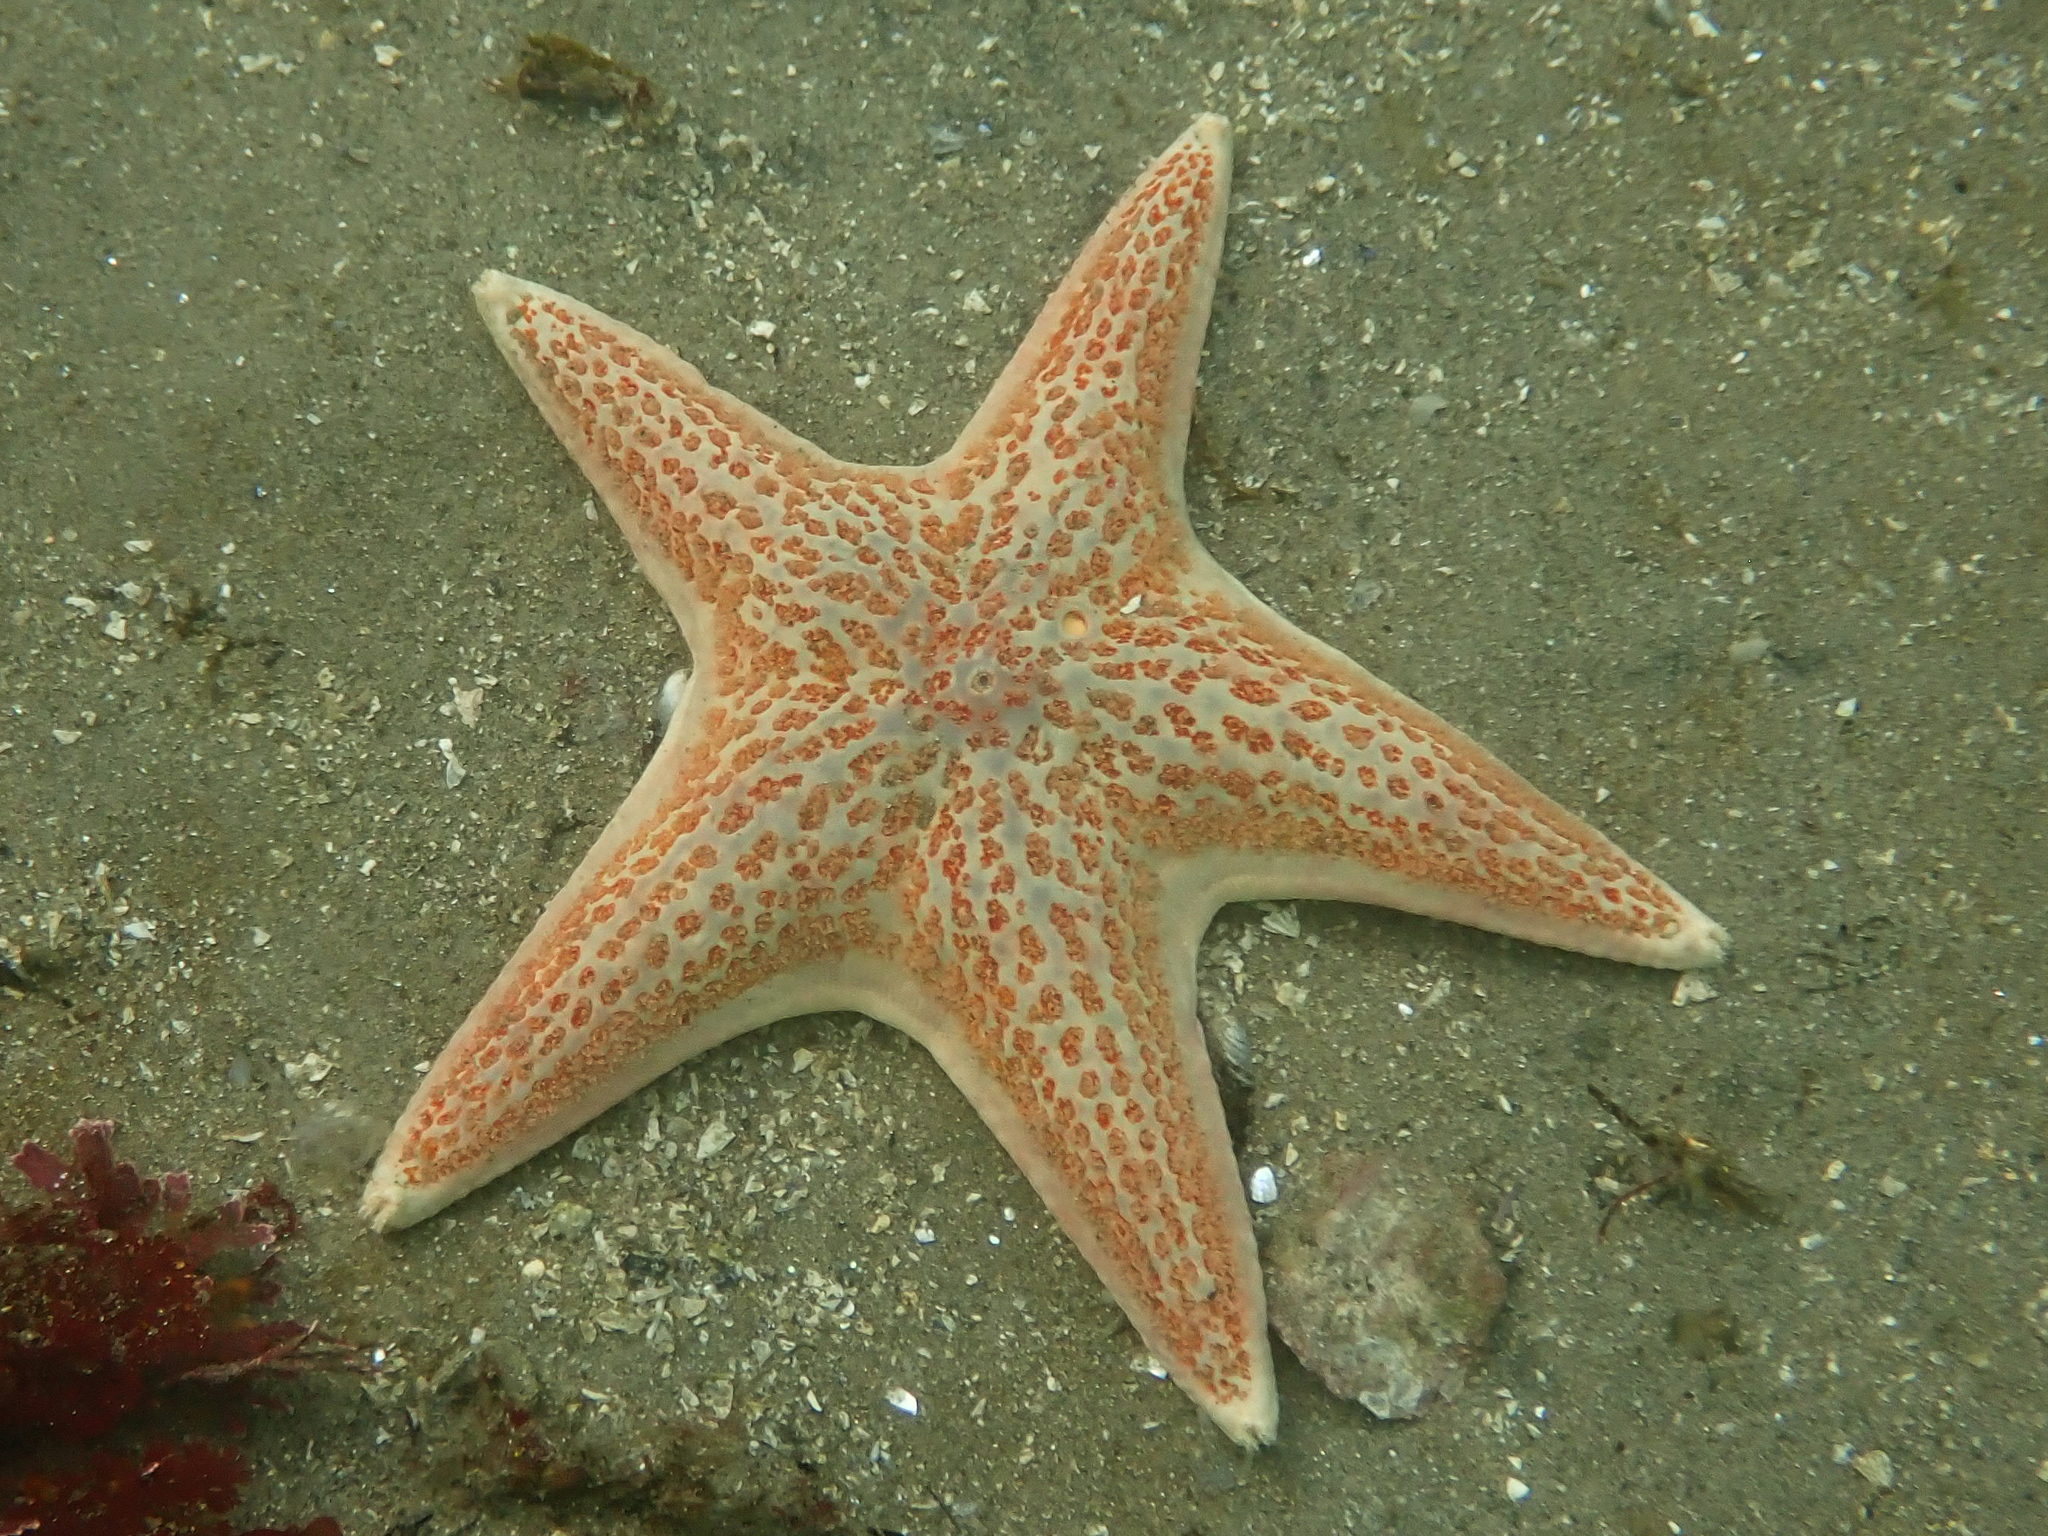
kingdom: Animalia
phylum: Echinodermata
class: Asteroidea
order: Valvatida
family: Asteropseidae
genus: Dermasterias
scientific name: Dermasterias imbricata
